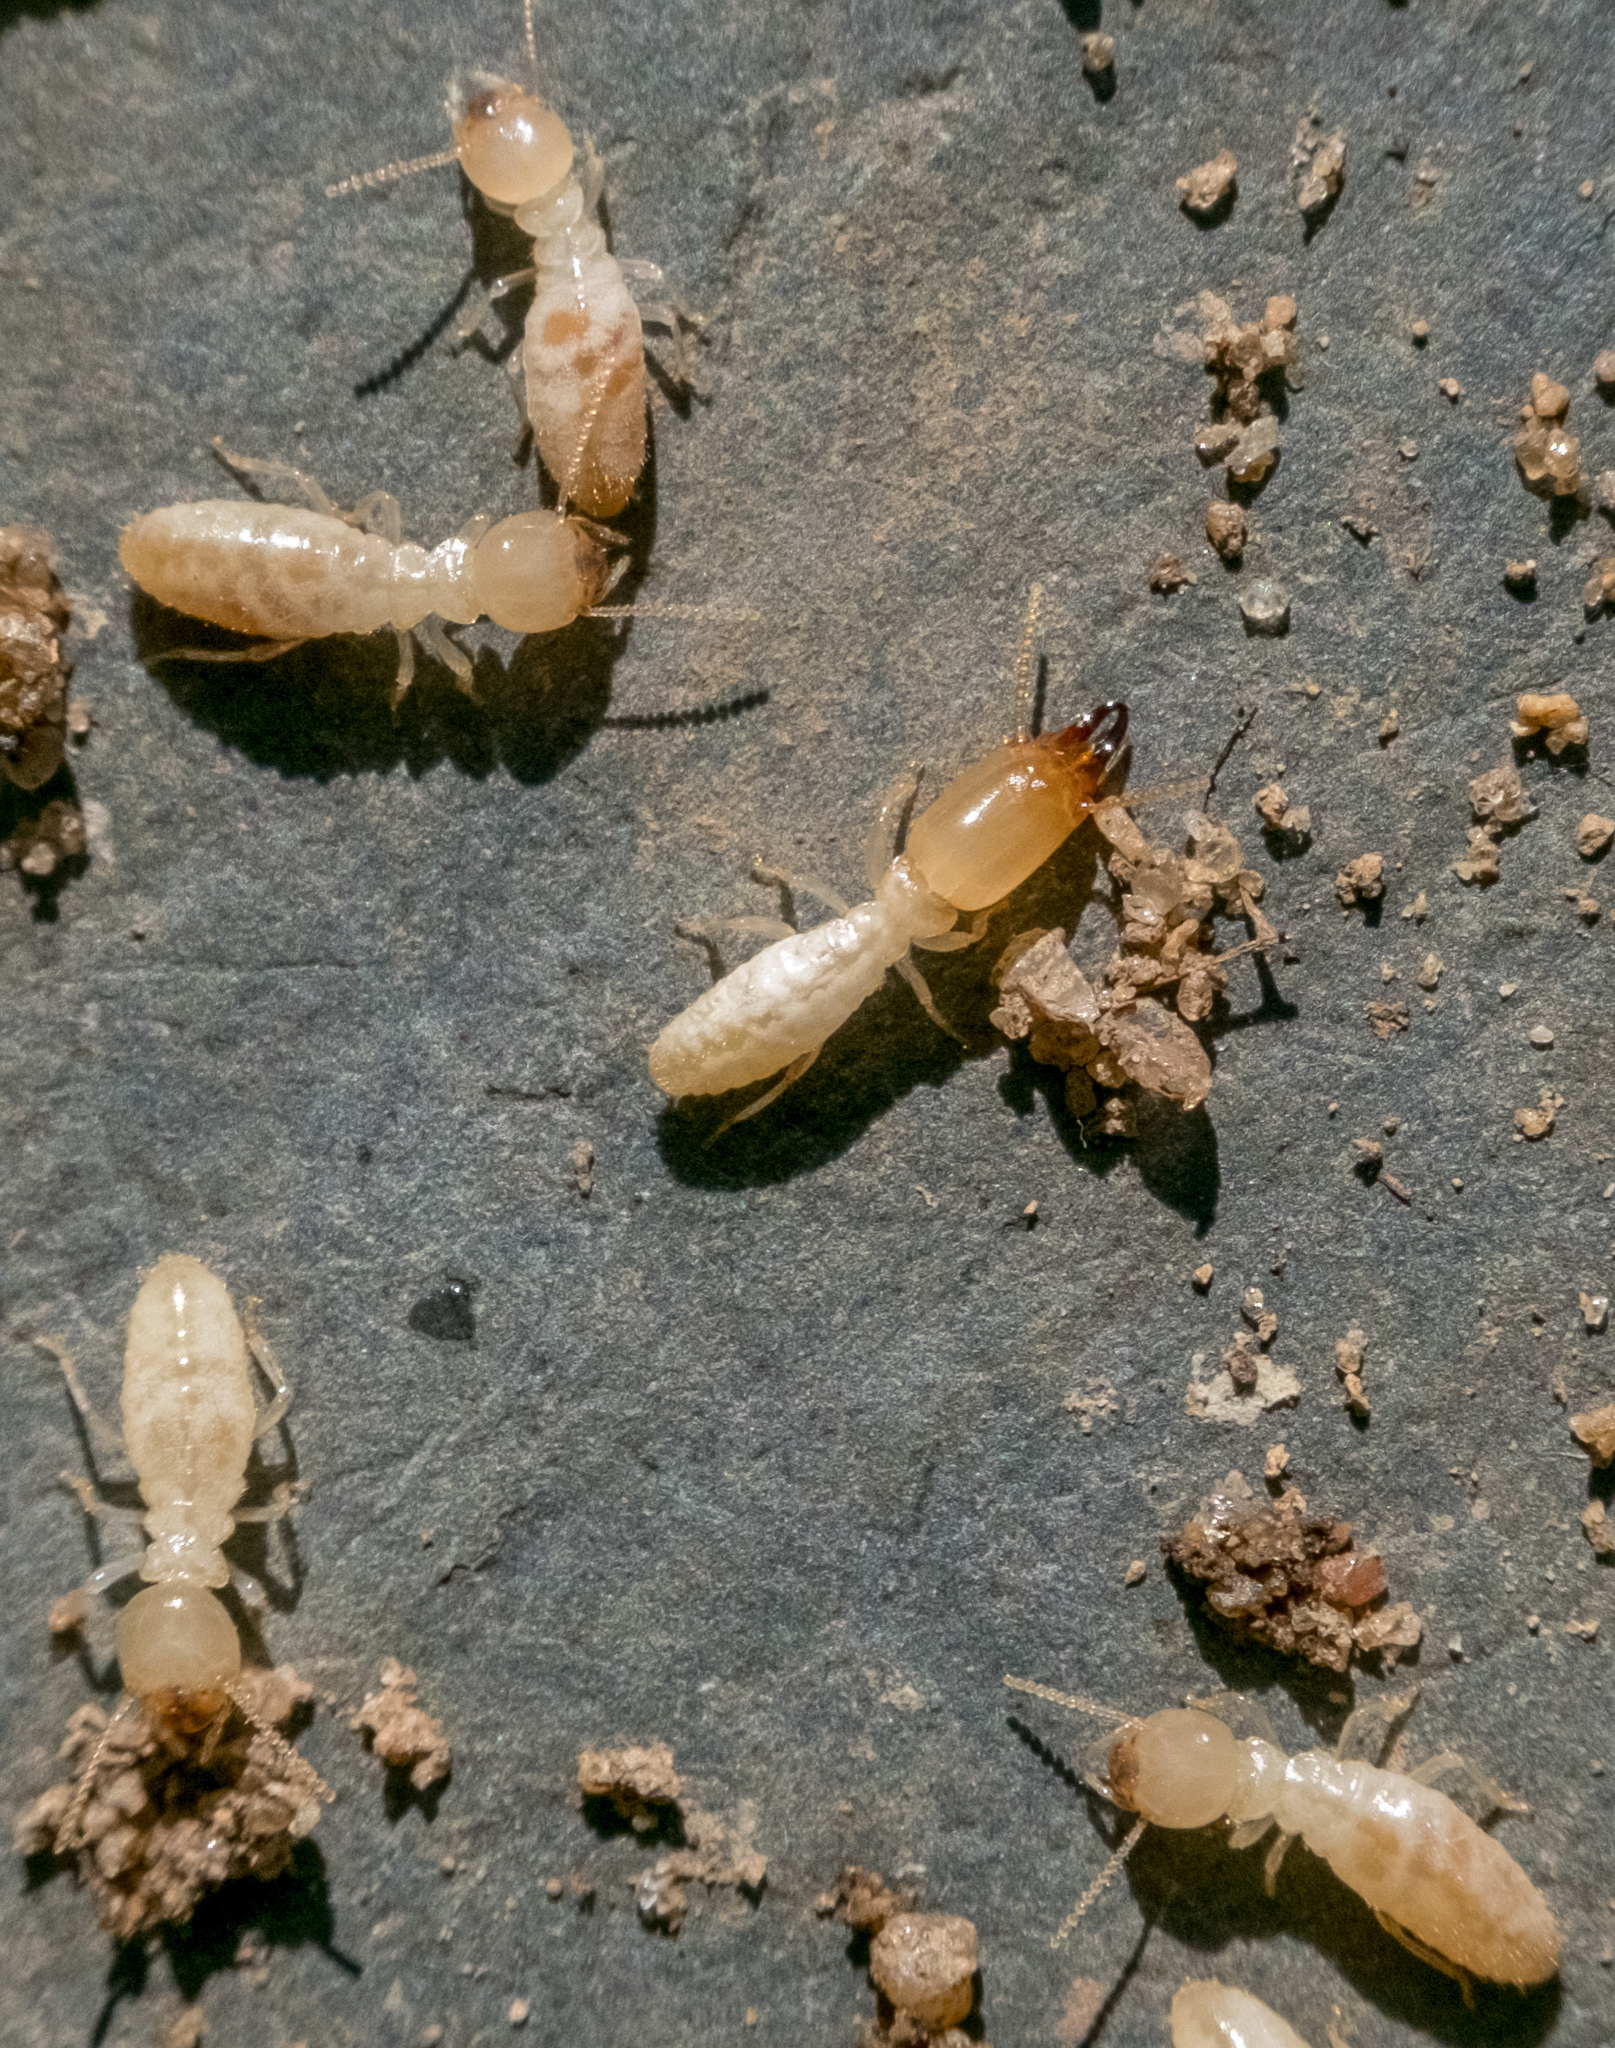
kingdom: Animalia
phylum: Arthropoda
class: Insecta
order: Blattodea
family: Rhinotermitidae
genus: Reticulitermes
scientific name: Reticulitermes flavipes
